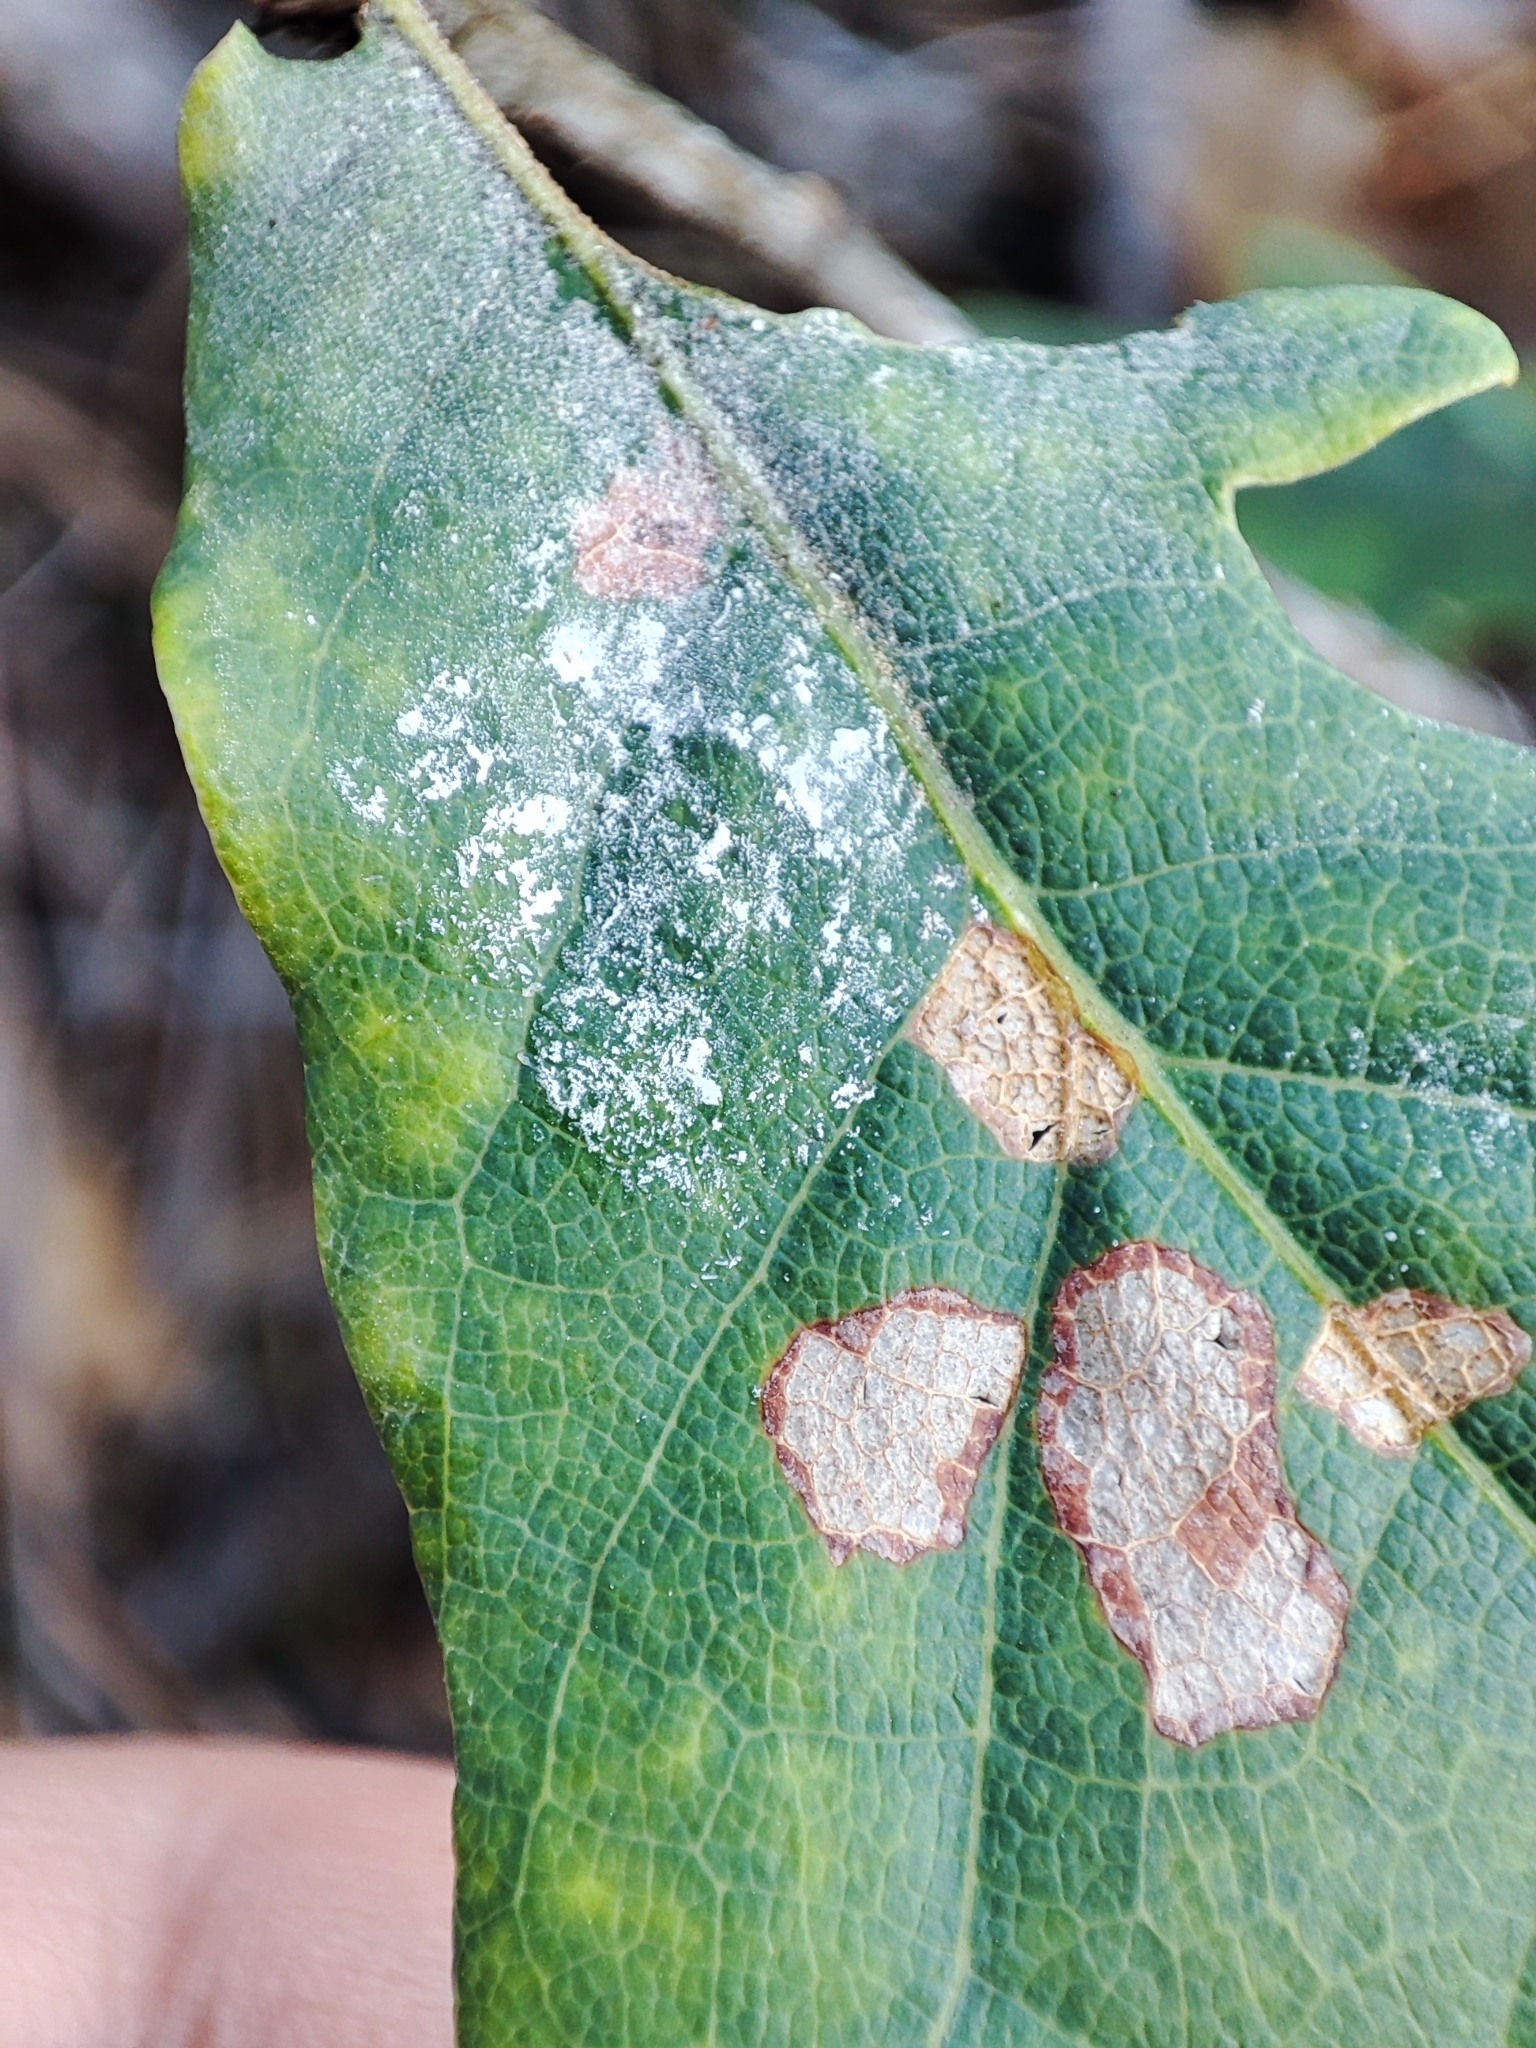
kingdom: Plantae
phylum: Tracheophyta
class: Magnoliopsida
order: Fagales
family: Fagaceae
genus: Quercus
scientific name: Quercus robur
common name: Pedunculate oak
